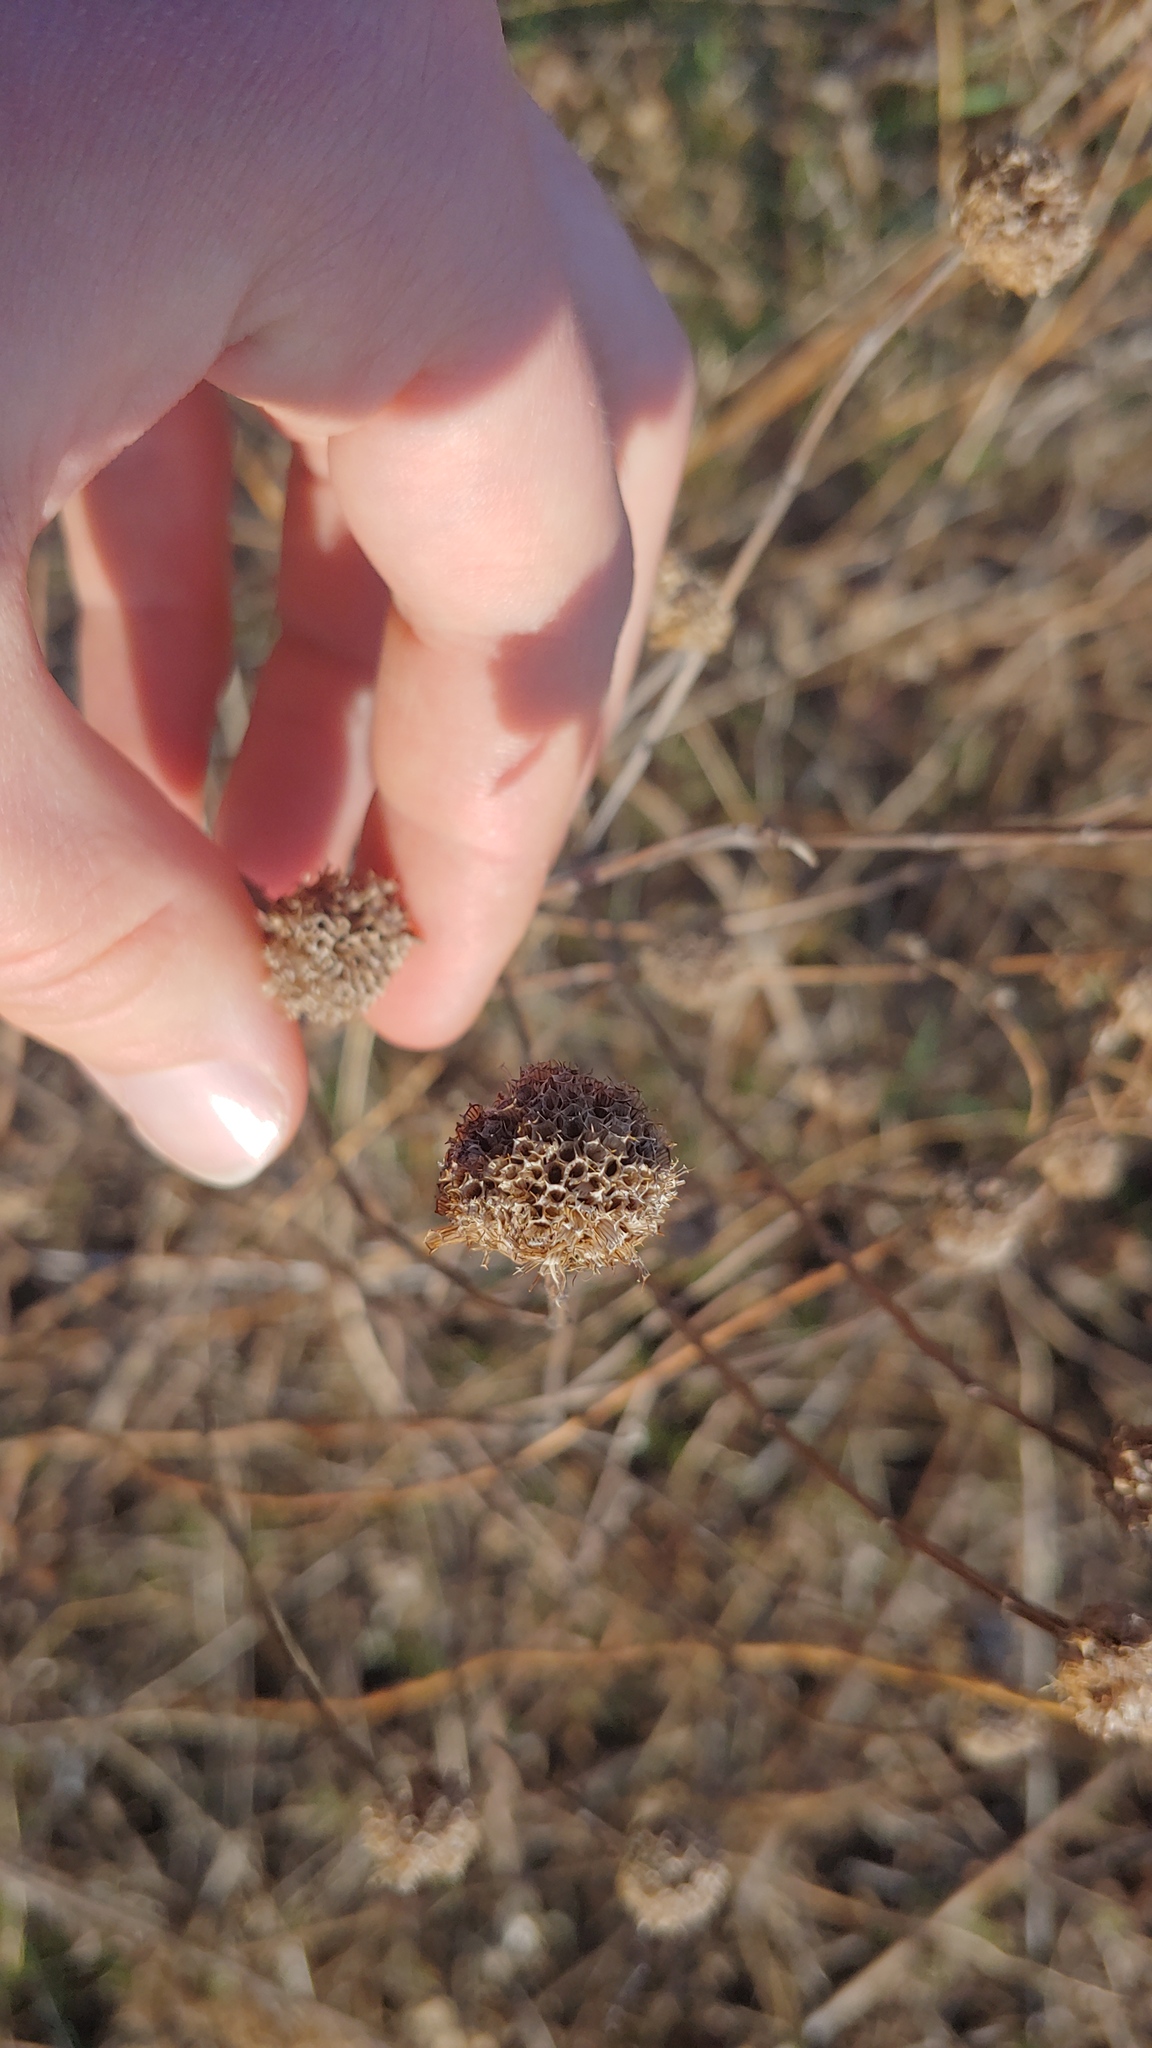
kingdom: Plantae
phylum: Tracheophyta
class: Magnoliopsida
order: Lamiales
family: Lamiaceae
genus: Monarda
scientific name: Monarda fistulosa
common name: Purple beebalm
